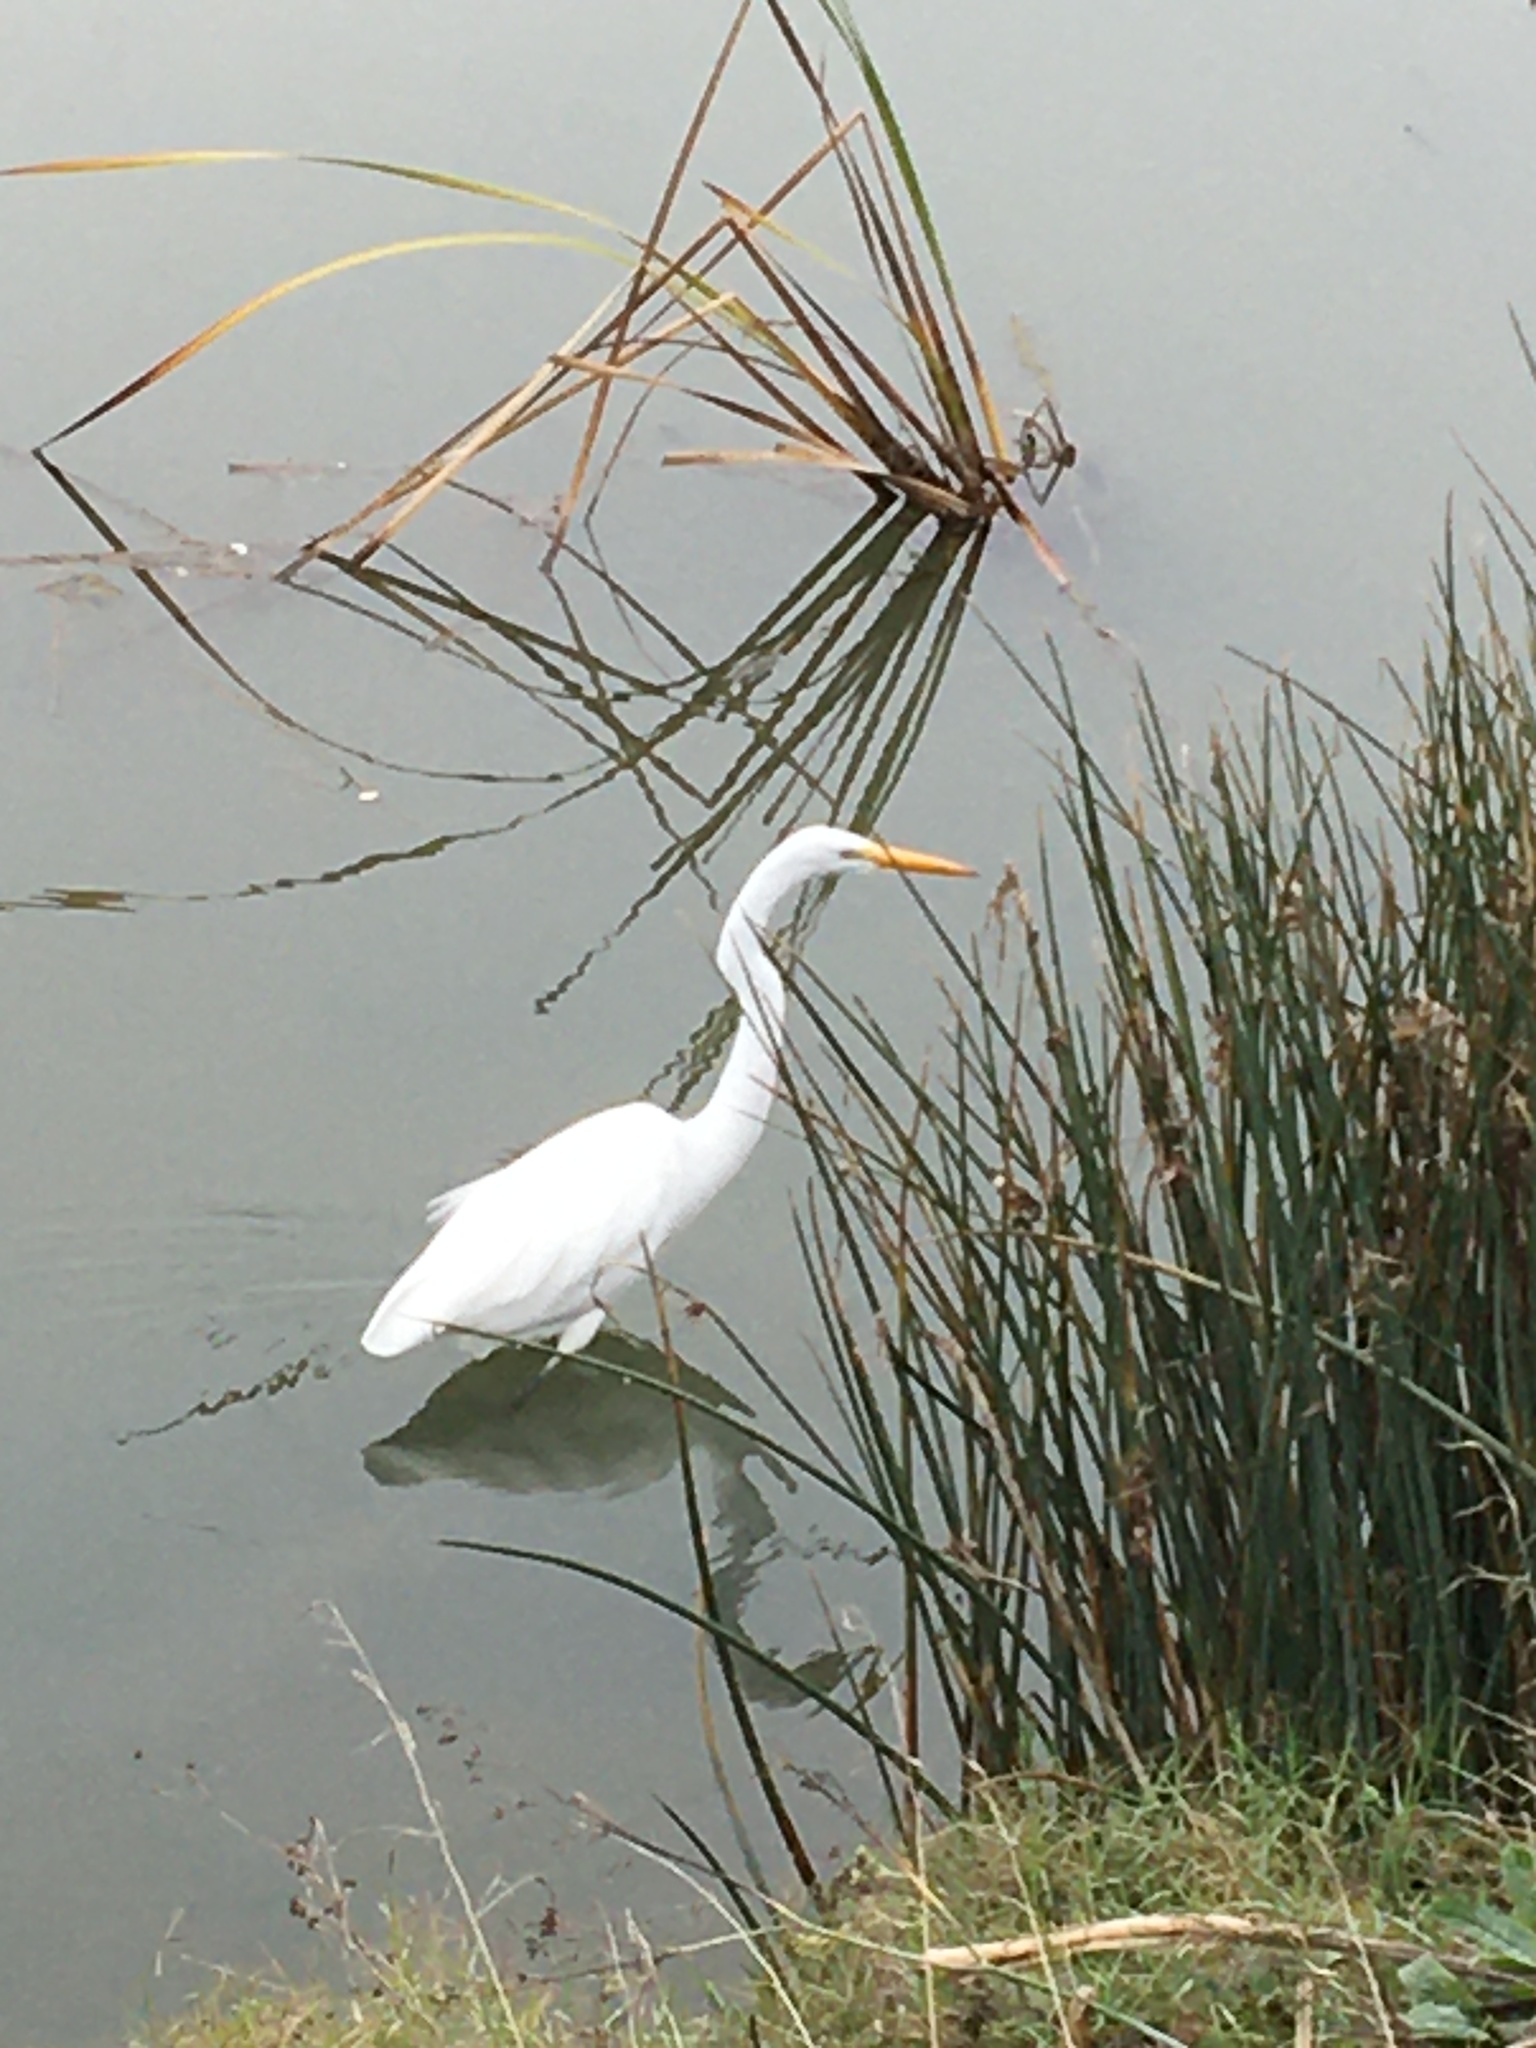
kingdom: Animalia
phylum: Chordata
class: Aves
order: Pelecaniformes
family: Ardeidae
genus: Ardea
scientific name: Ardea alba
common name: Great egret
